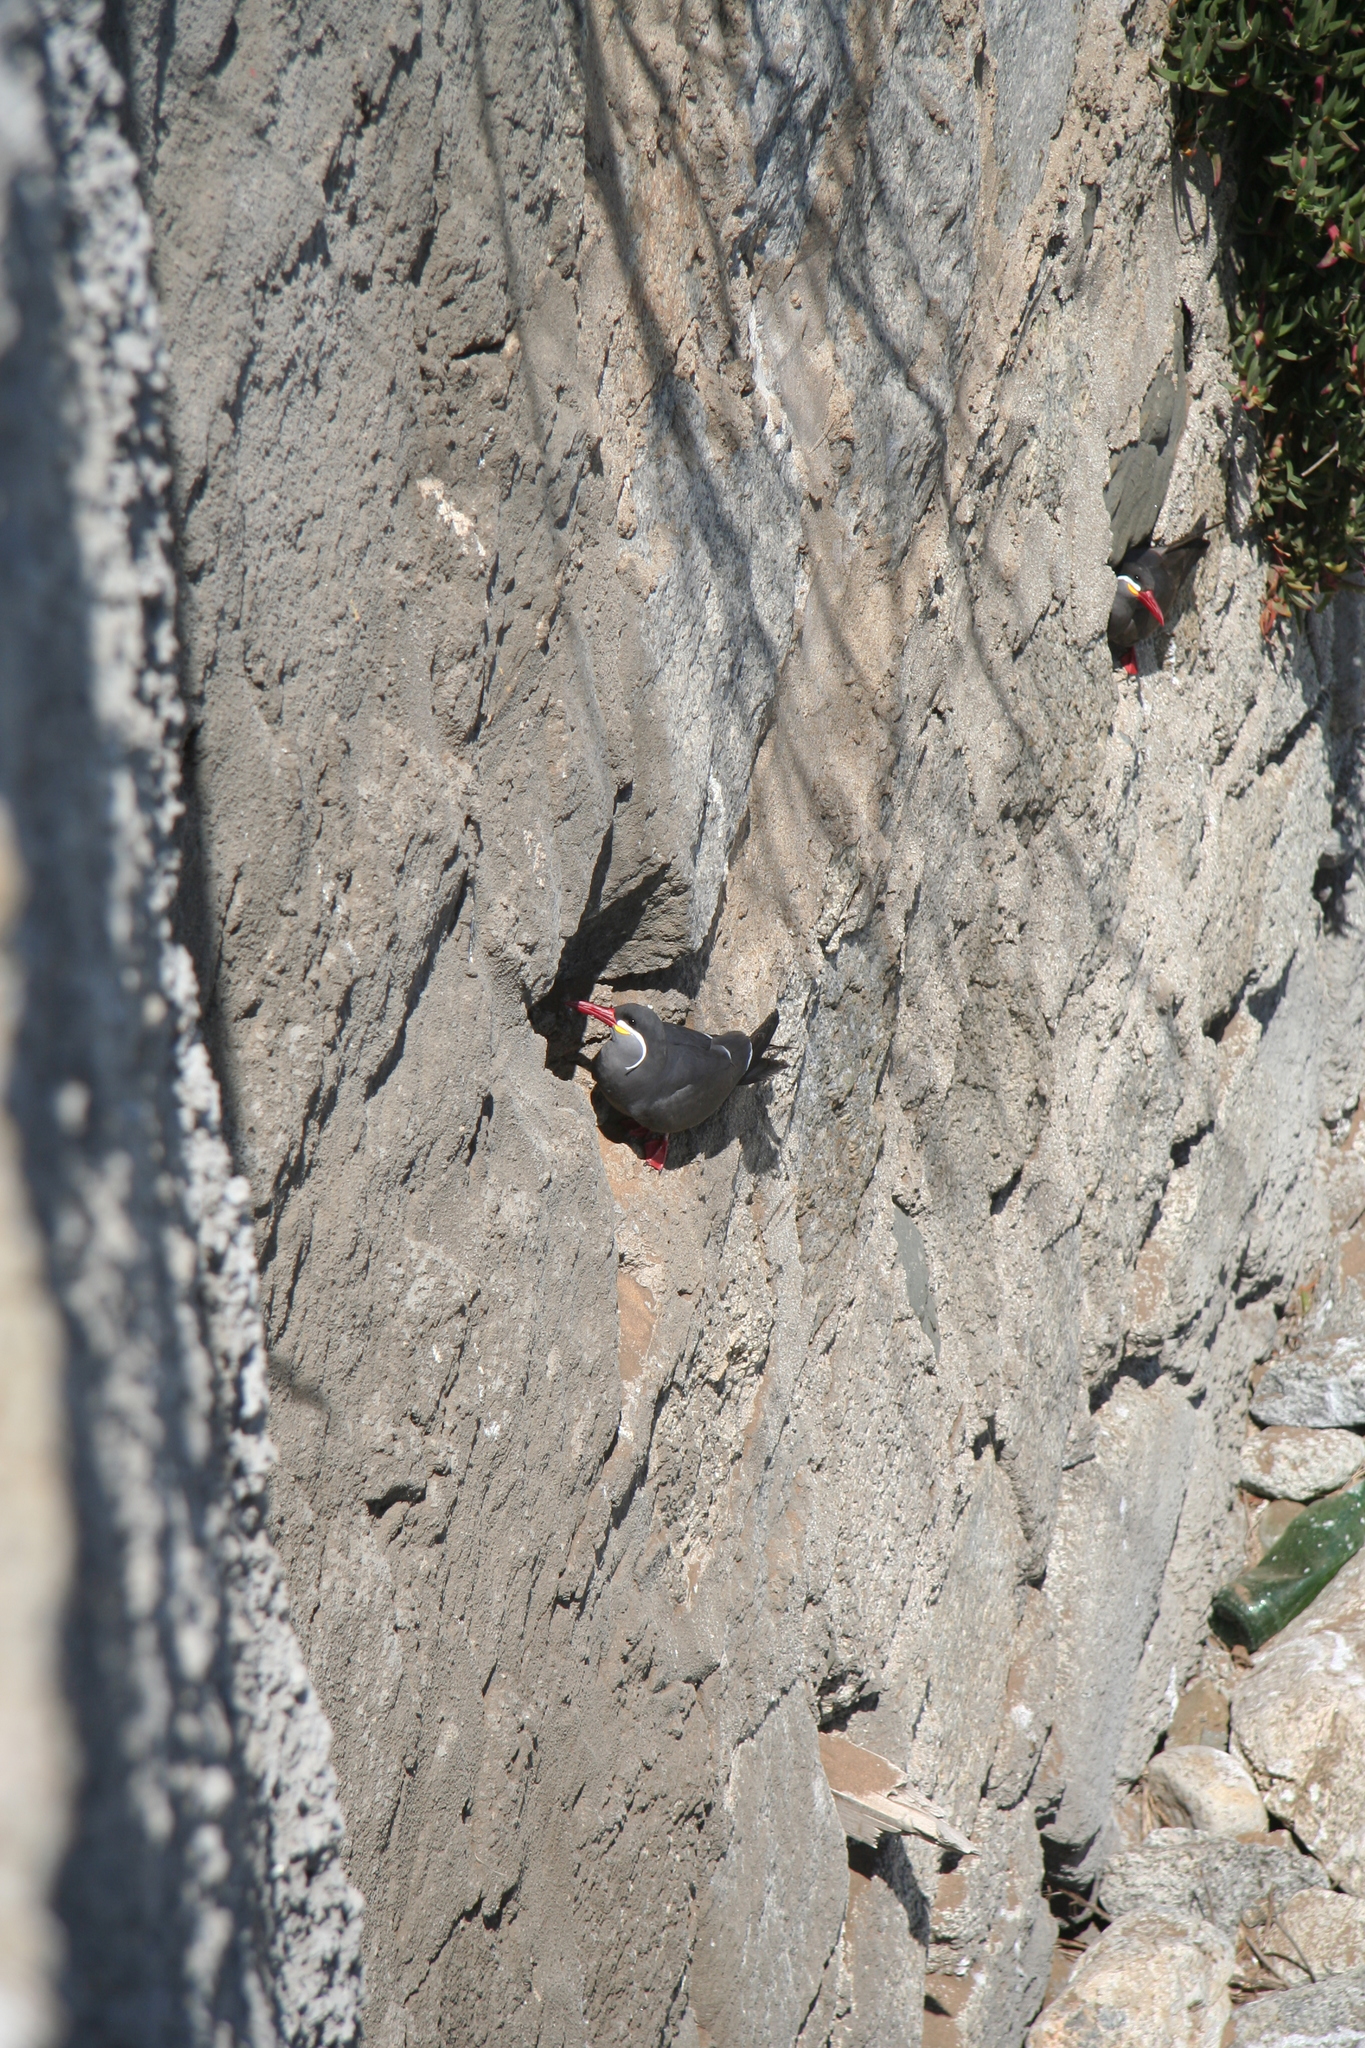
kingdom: Animalia
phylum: Chordata
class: Aves
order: Charadriiformes
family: Laridae
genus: Larosterna
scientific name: Larosterna inca
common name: Inca tern
